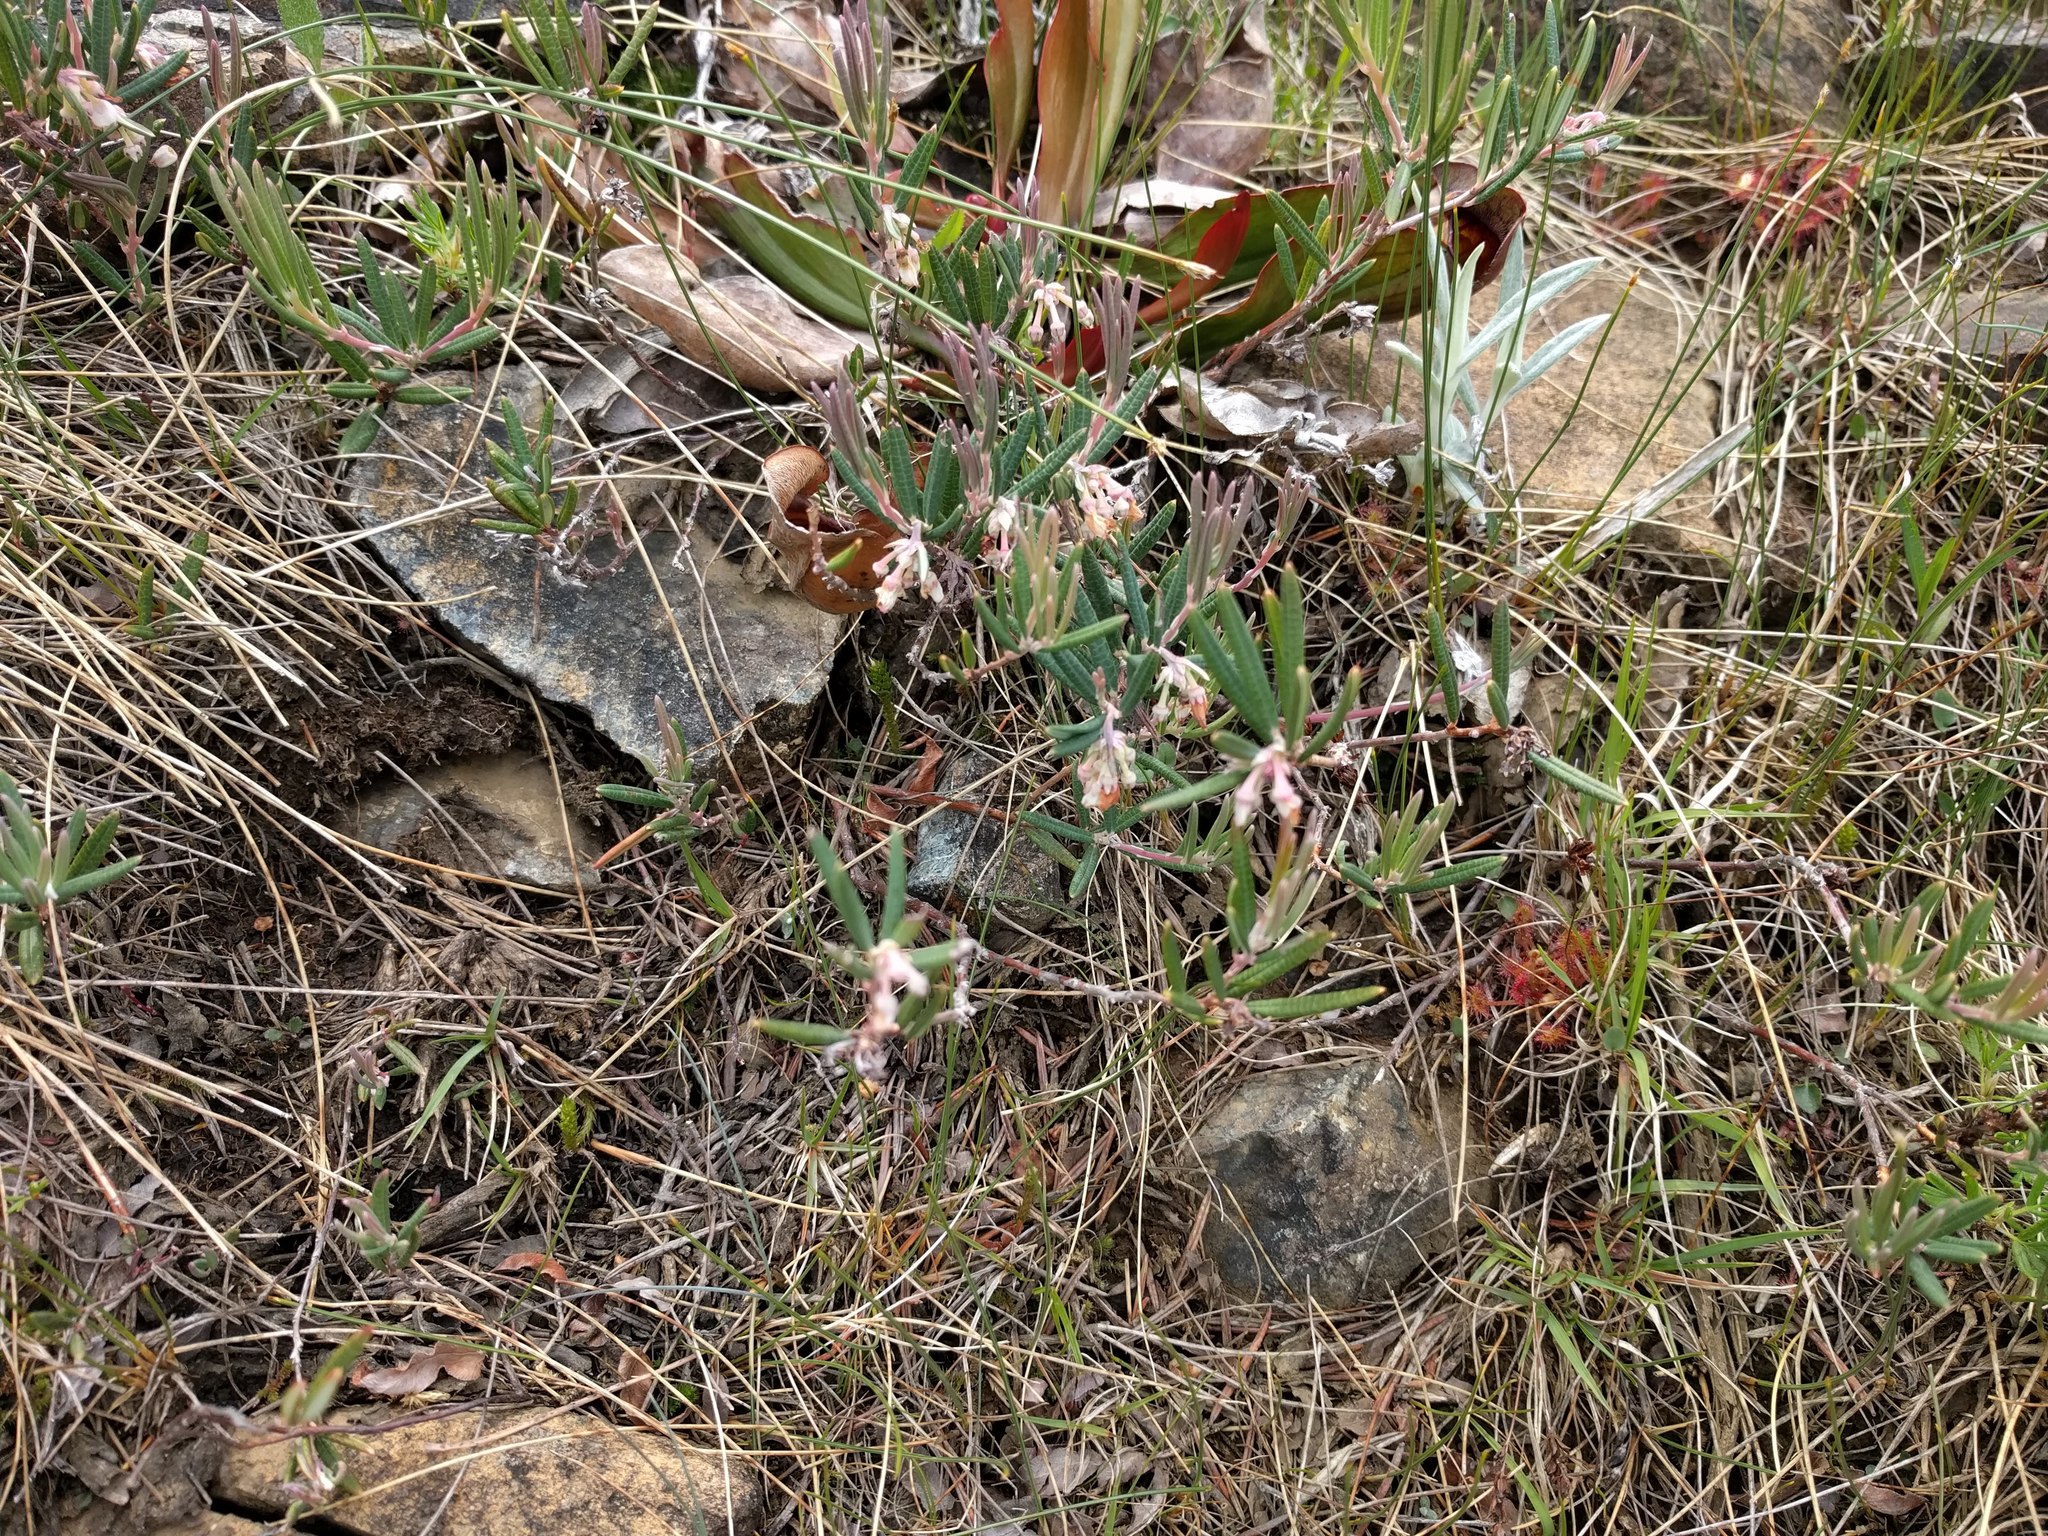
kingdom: Plantae
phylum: Tracheophyta
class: Magnoliopsida
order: Ericales
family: Ericaceae
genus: Andromeda
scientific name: Andromeda polifolia
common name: Bog-rosemary
